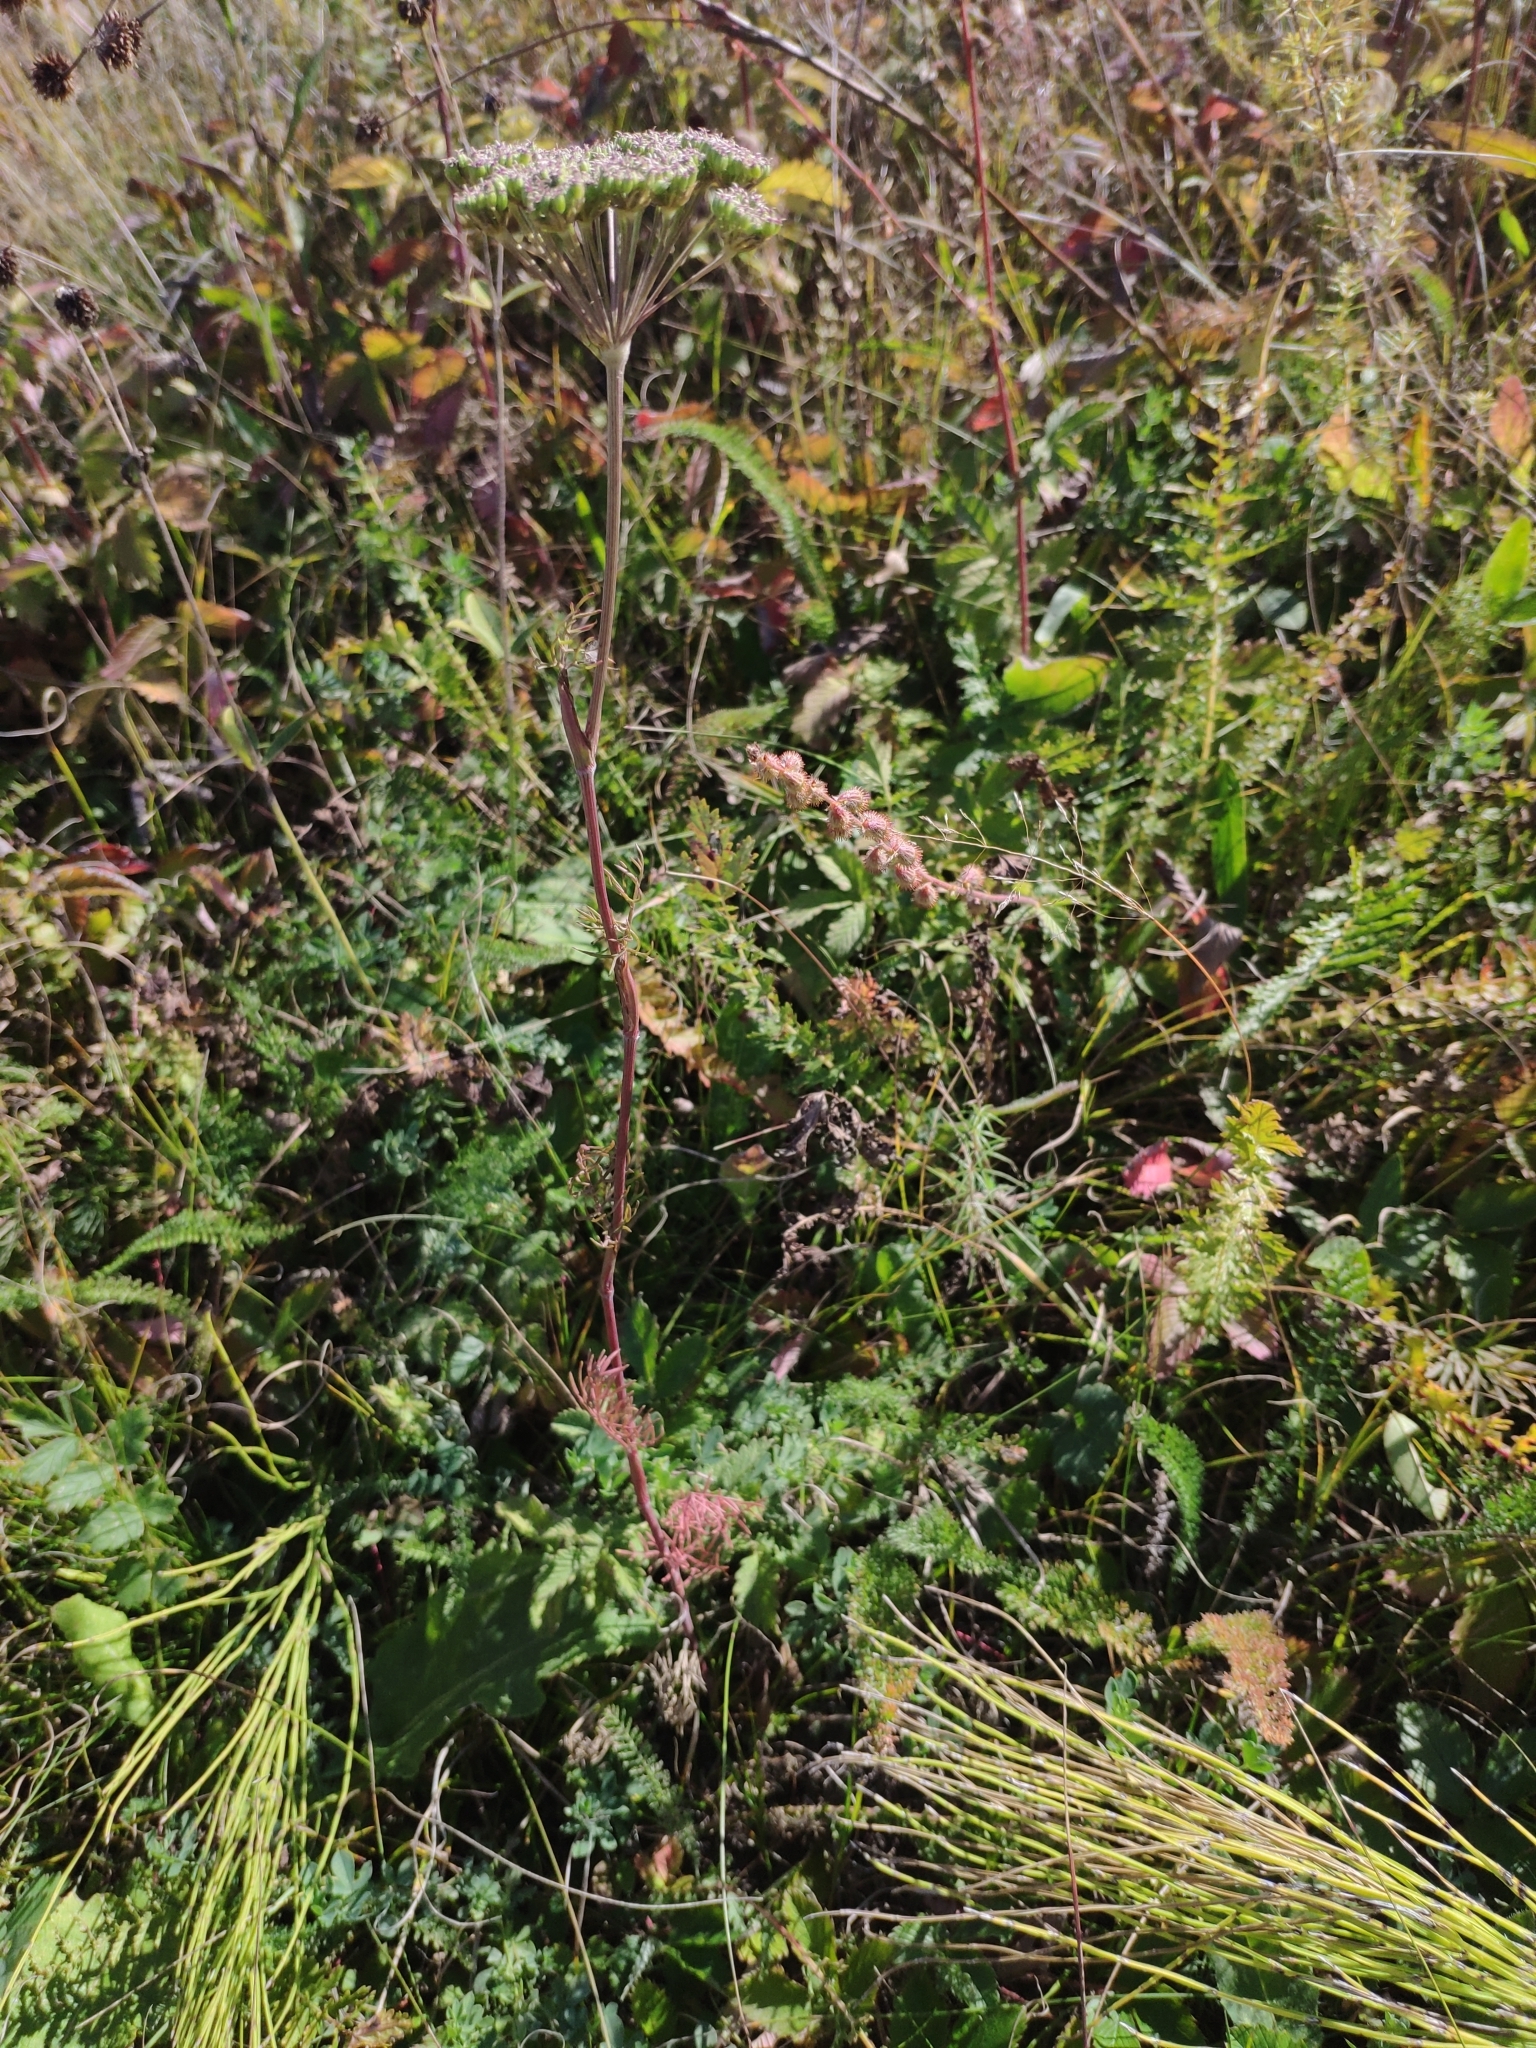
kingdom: Plantae
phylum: Tracheophyta
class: Magnoliopsida
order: Apiales
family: Apiaceae
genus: Seseli
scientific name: Seseli annuum
